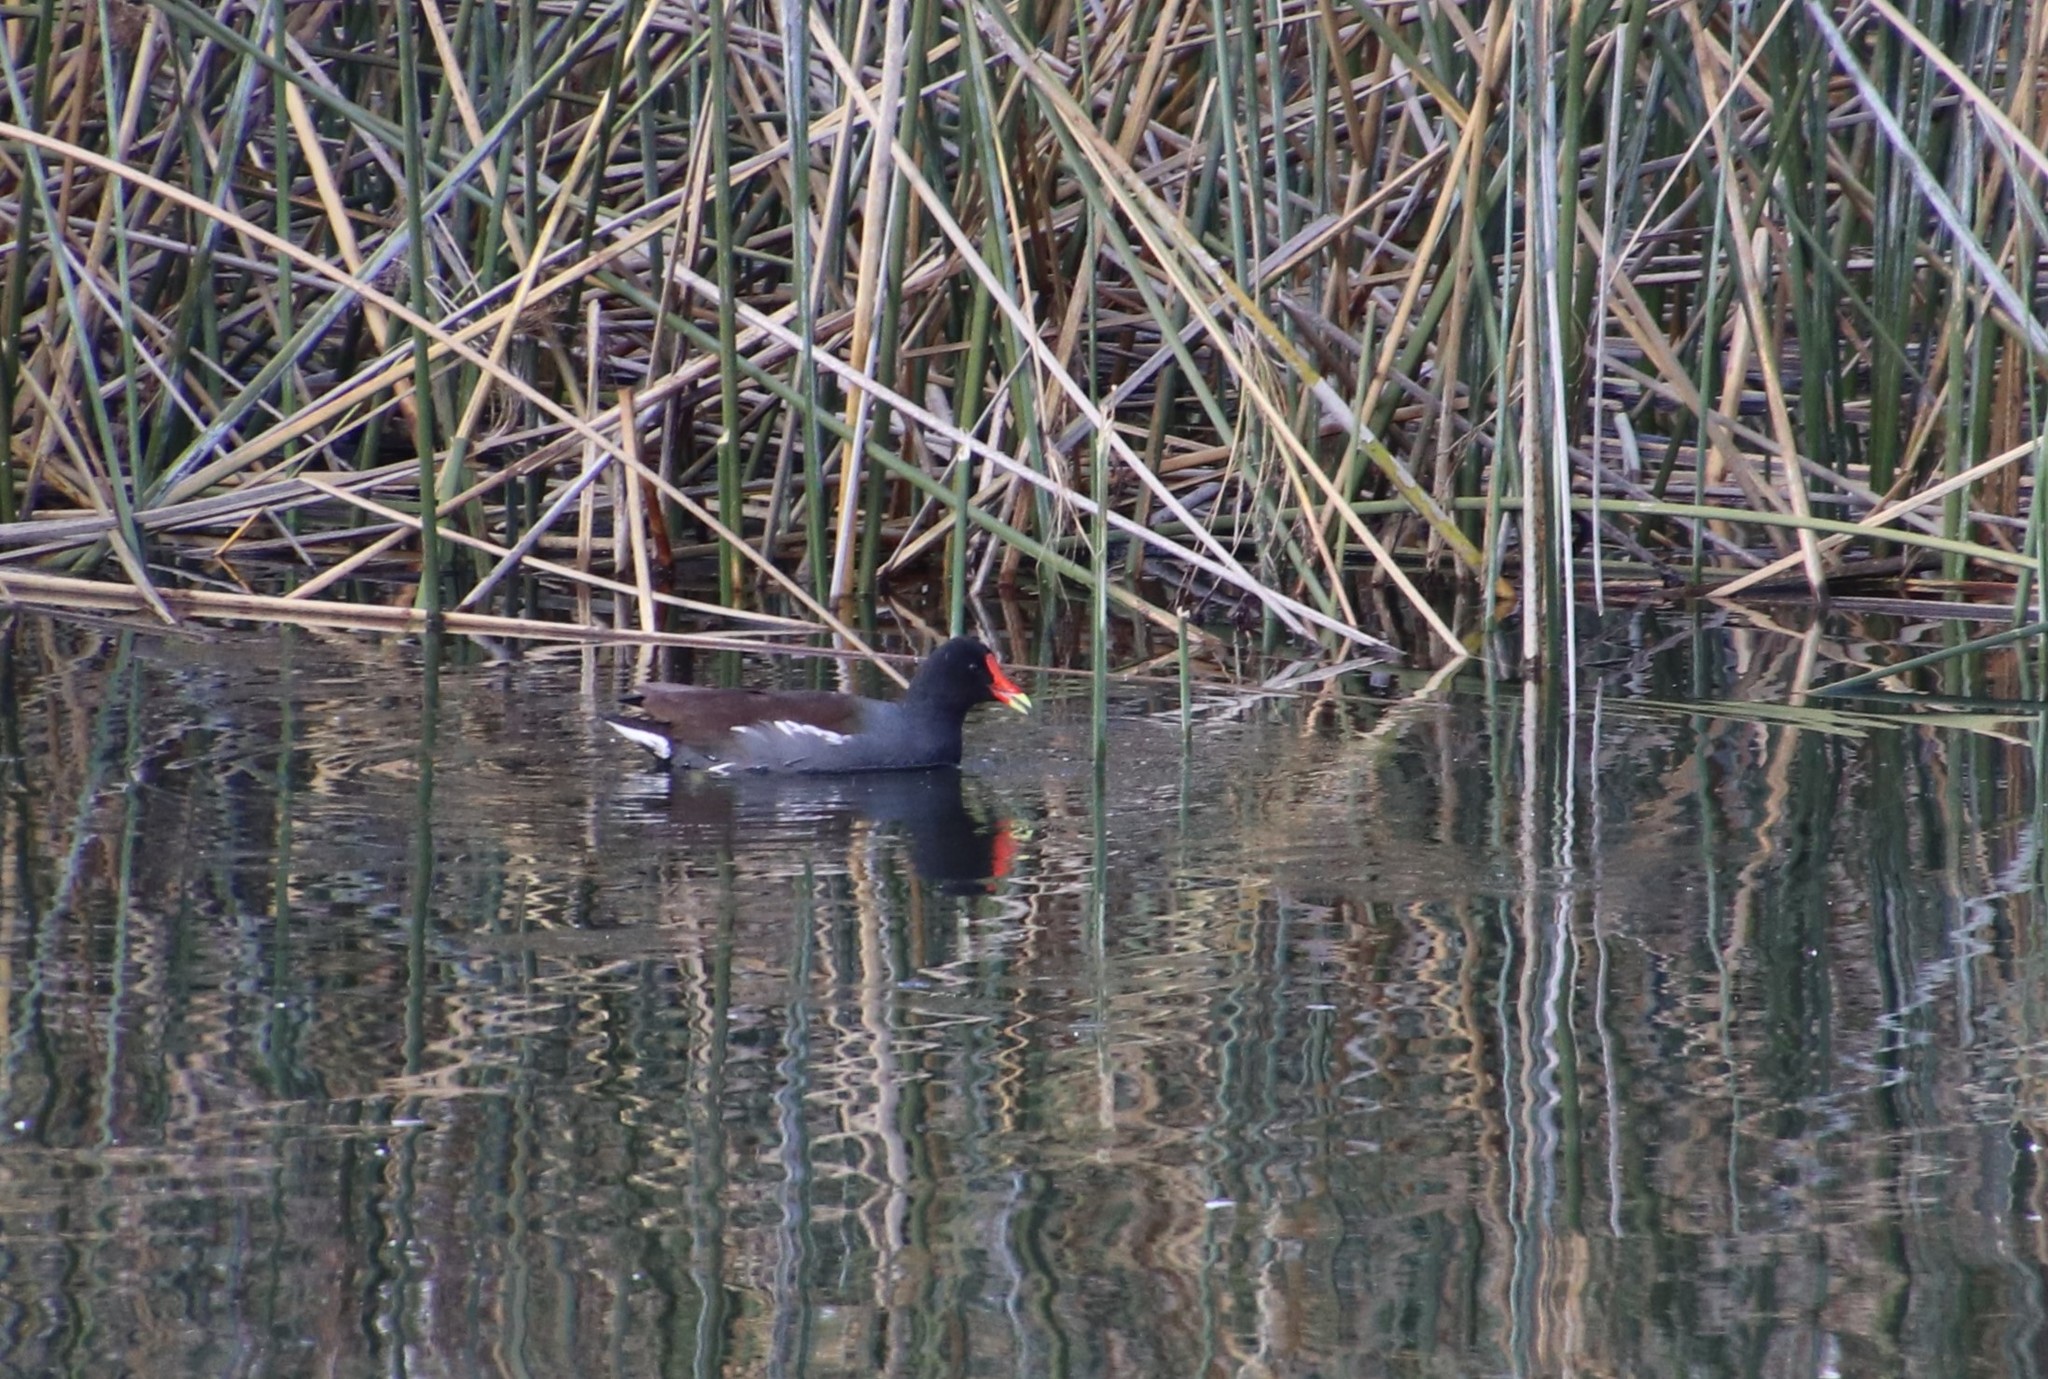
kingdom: Animalia
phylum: Chordata
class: Aves
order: Gruiformes
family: Rallidae
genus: Gallinula
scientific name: Gallinula chloropus
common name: Common moorhen
